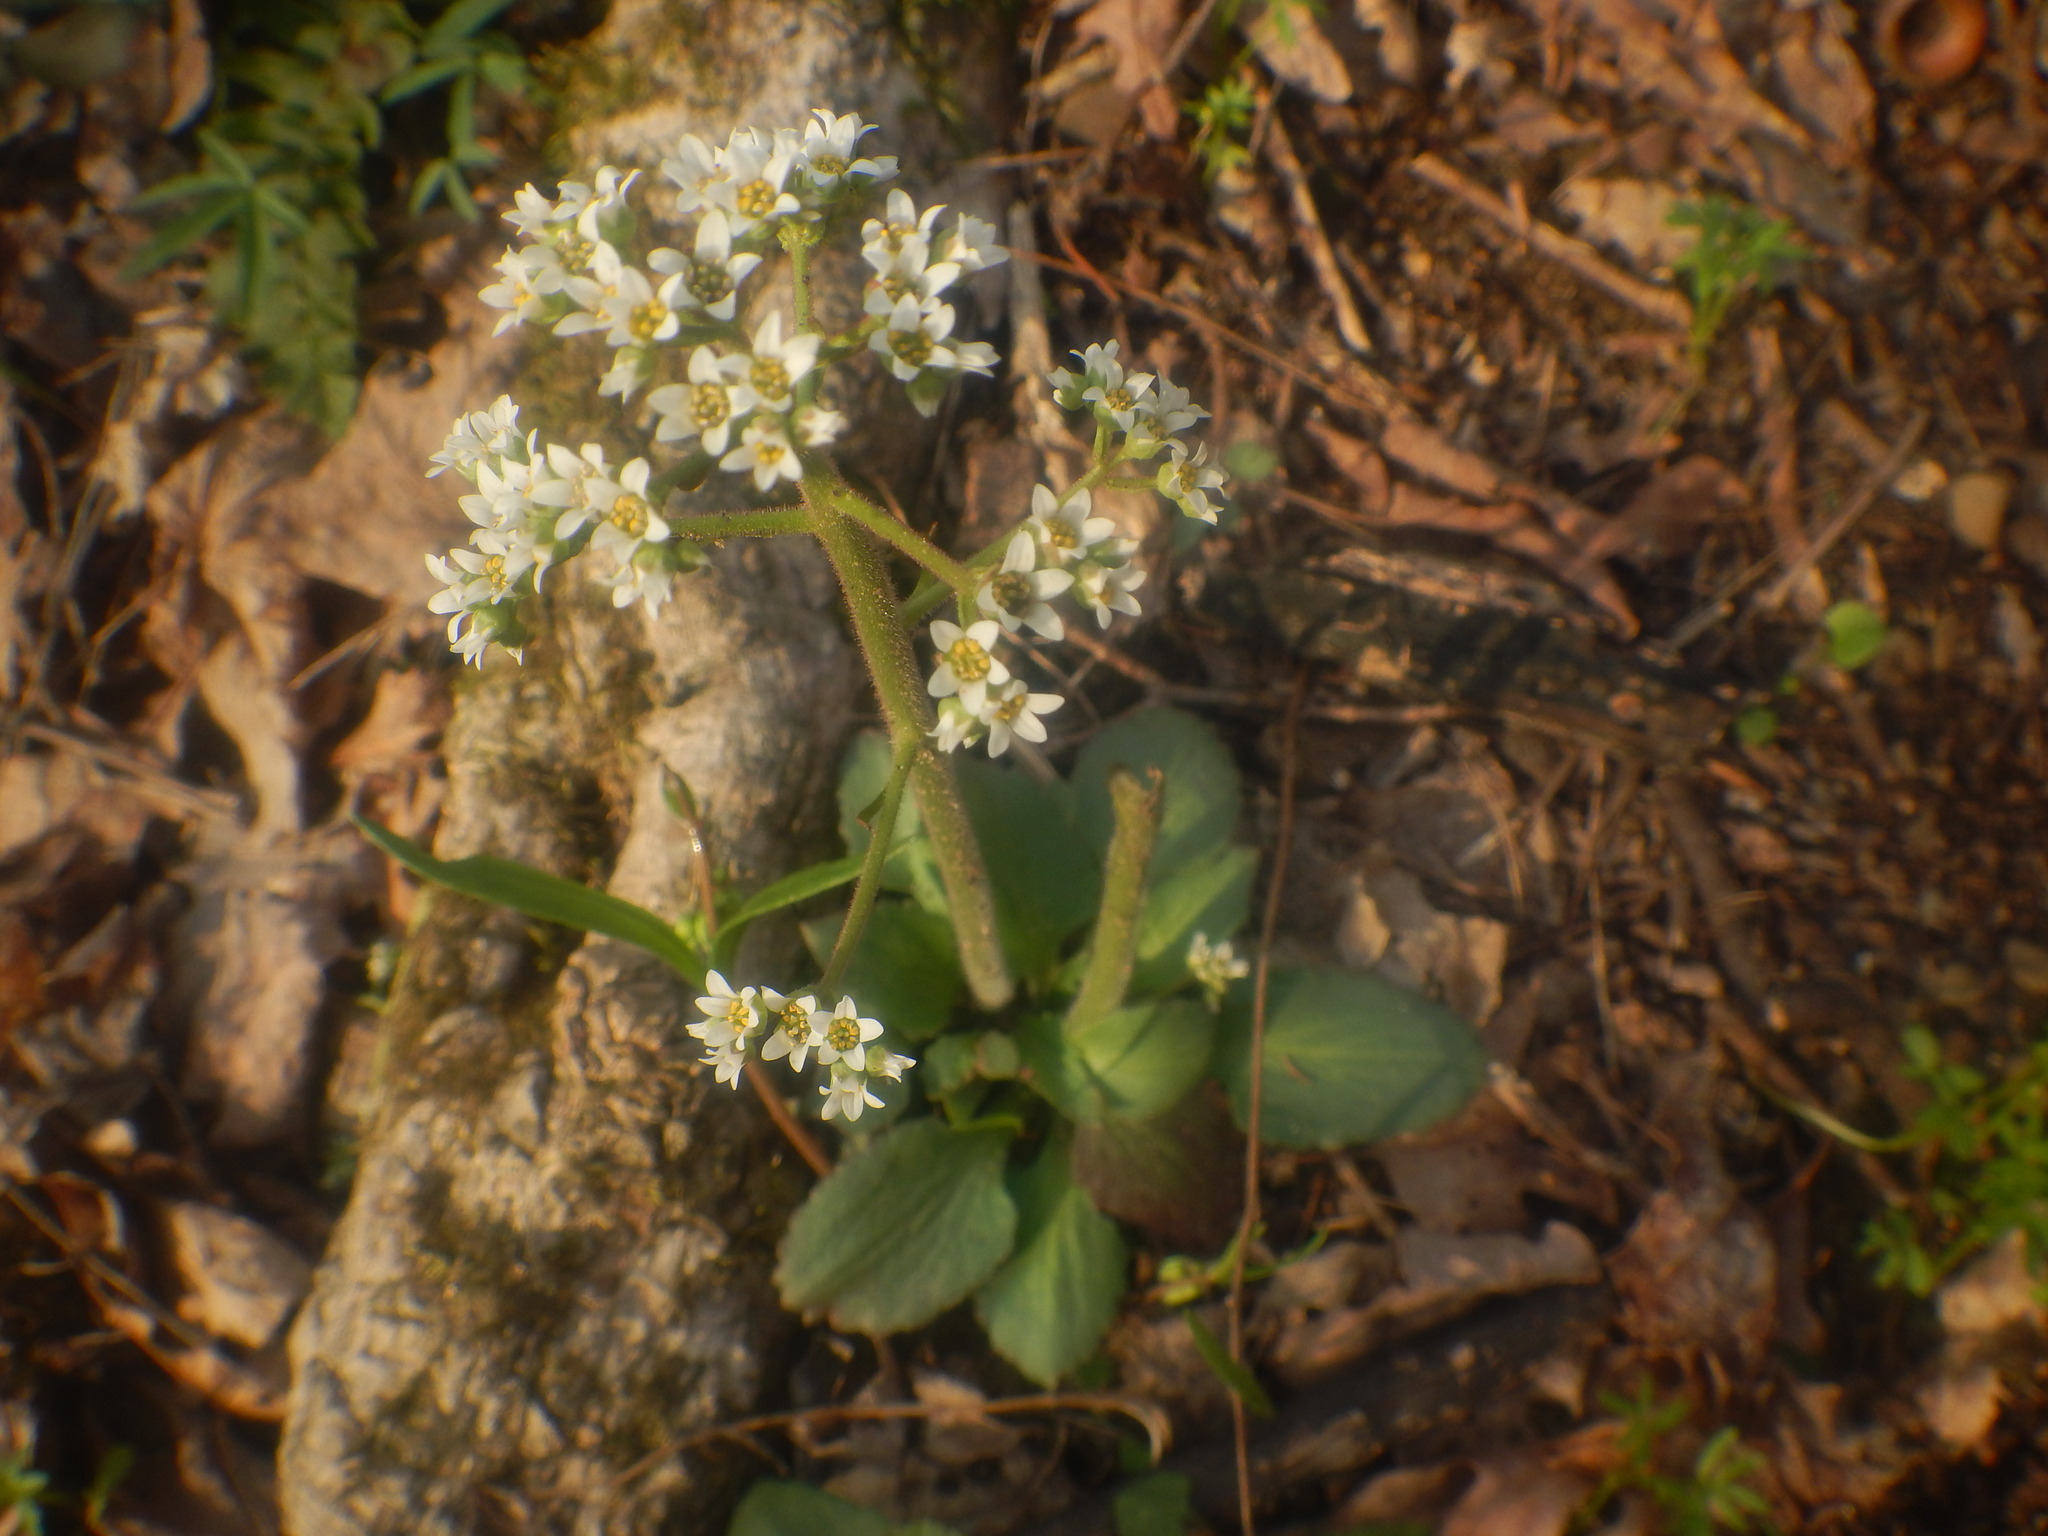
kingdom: Plantae
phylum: Tracheophyta
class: Magnoliopsida
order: Saxifragales
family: Saxifragaceae
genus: Micranthes
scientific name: Micranthes virginiensis
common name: Early saxifrage
